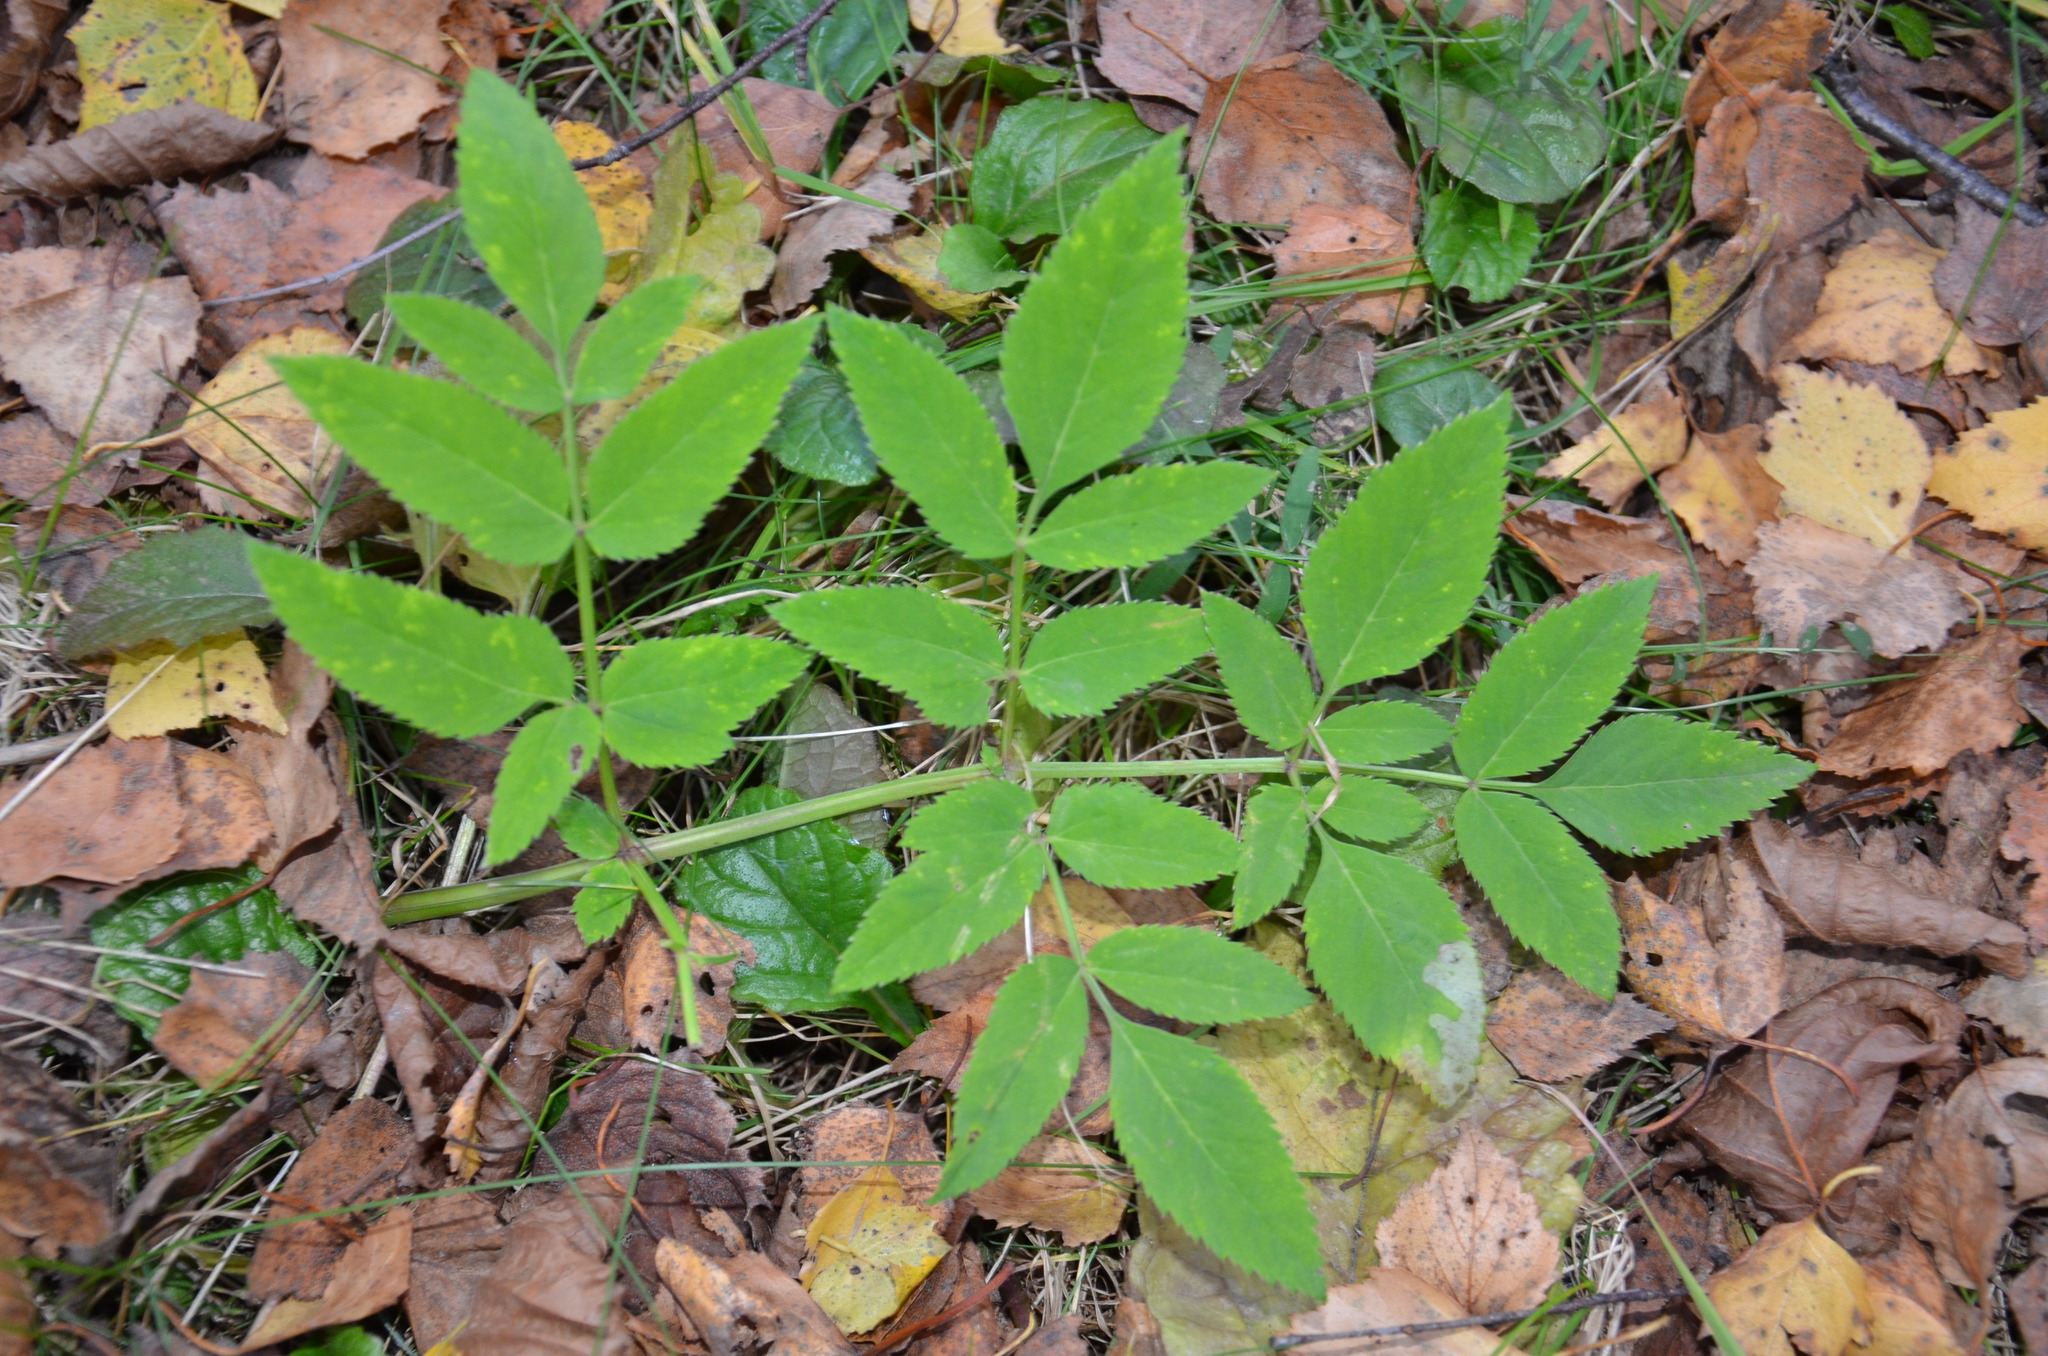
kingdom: Plantae
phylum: Tracheophyta
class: Magnoliopsida
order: Apiales
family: Apiaceae
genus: Angelica
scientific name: Angelica sylvestris
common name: Wild angelica
